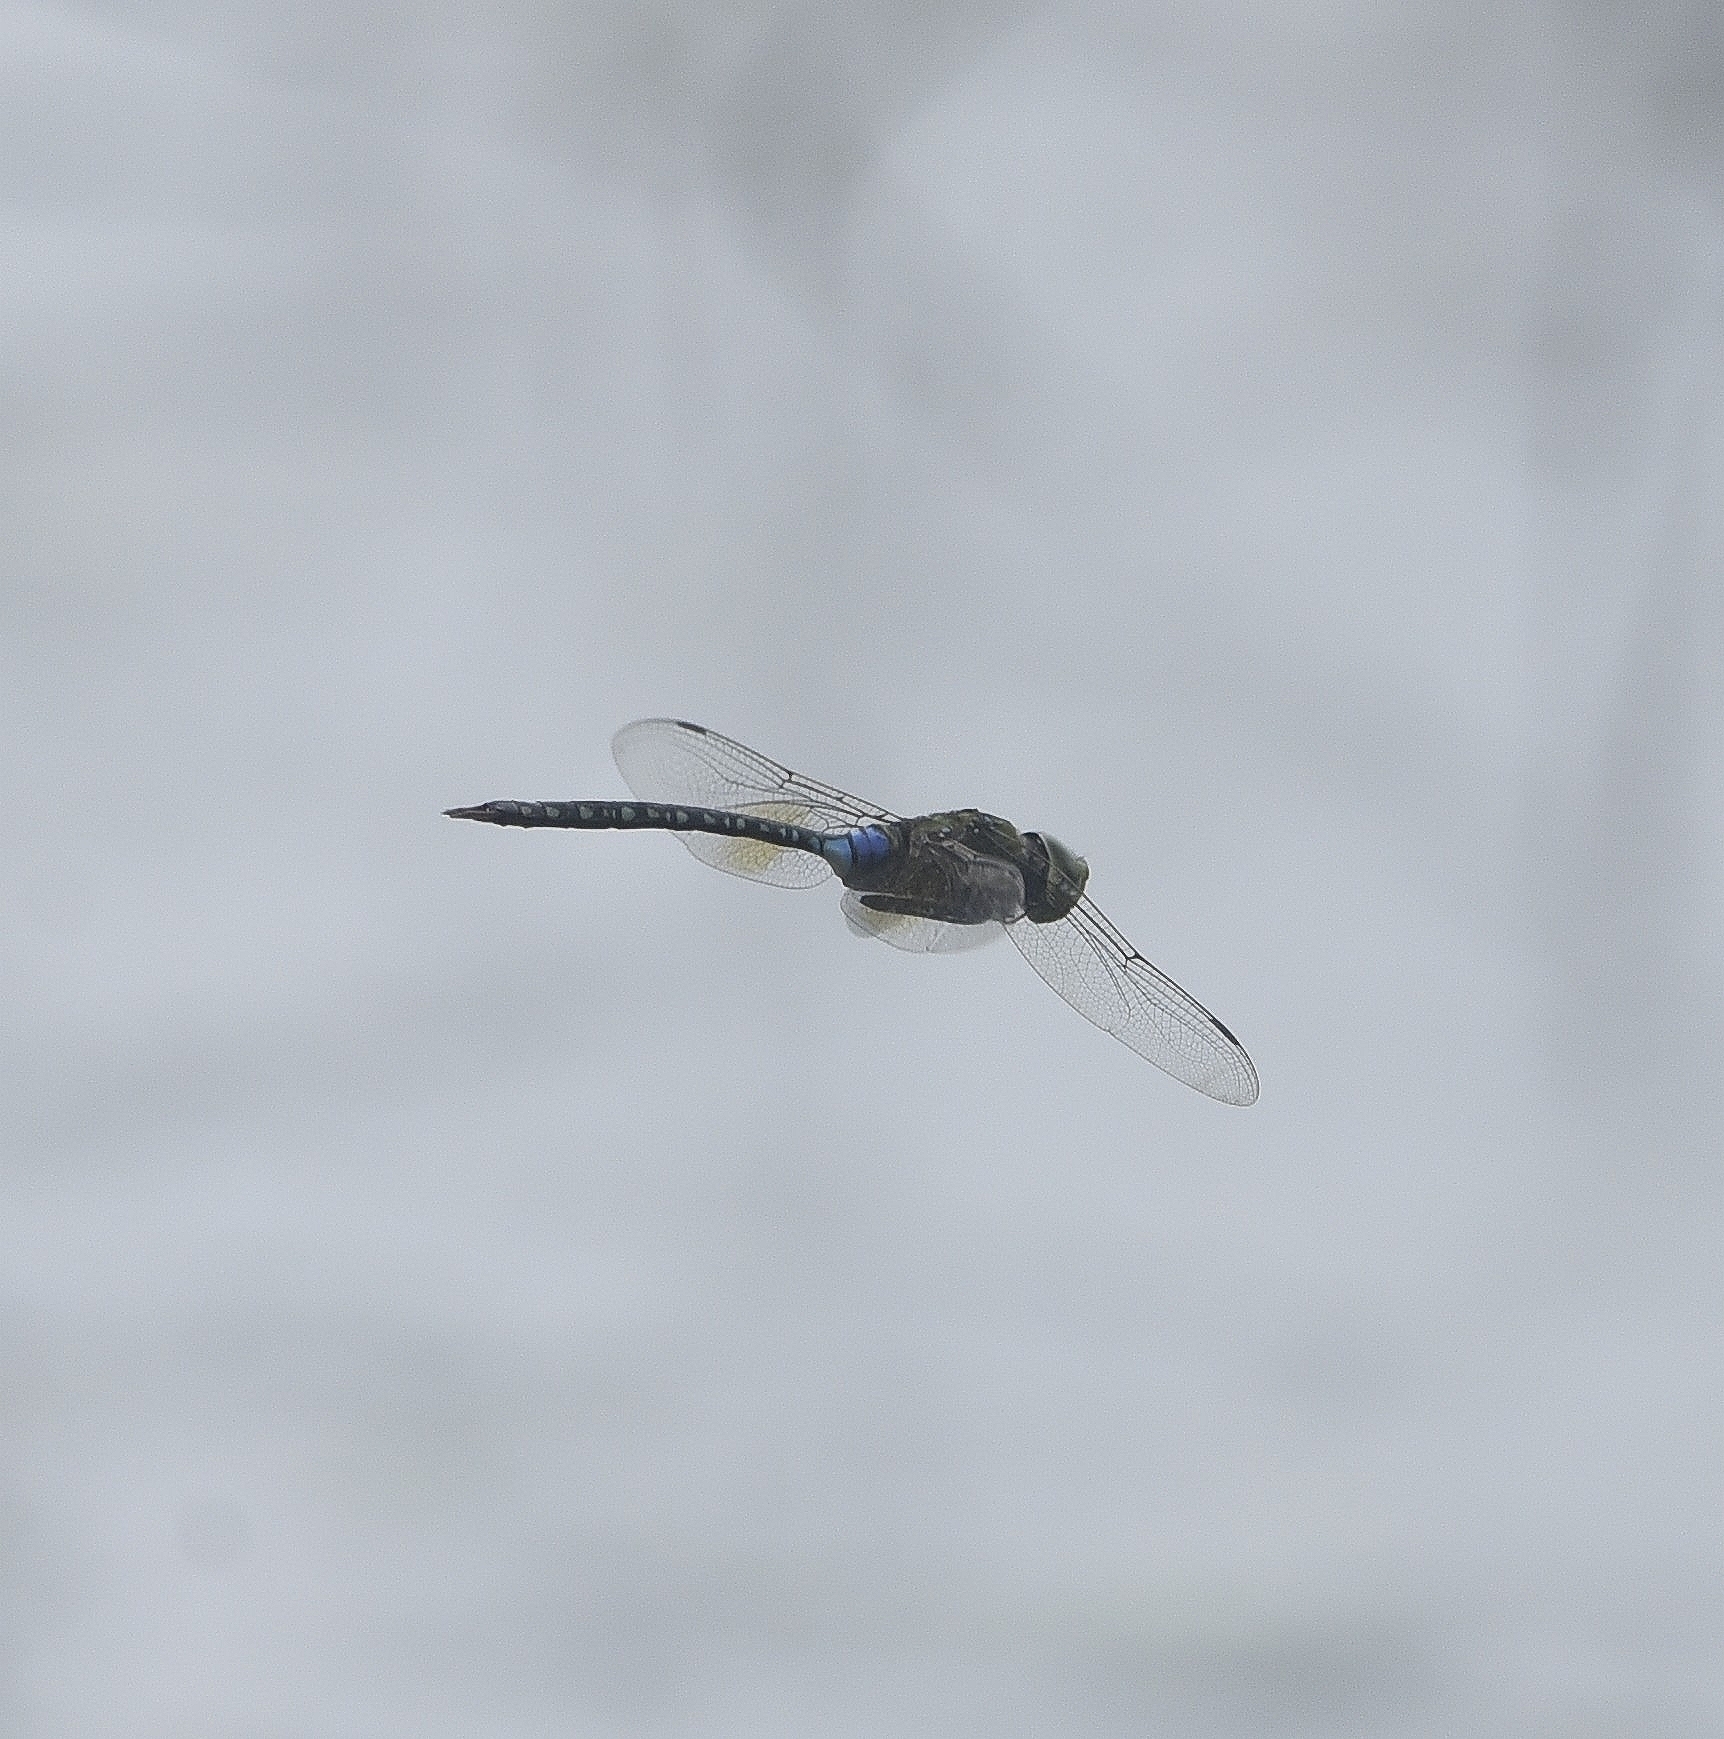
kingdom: Animalia
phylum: Arthropoda
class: Insecta
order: Odonata
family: Aeshnidae
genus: Anax
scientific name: Anax guttatus
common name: Emperor
